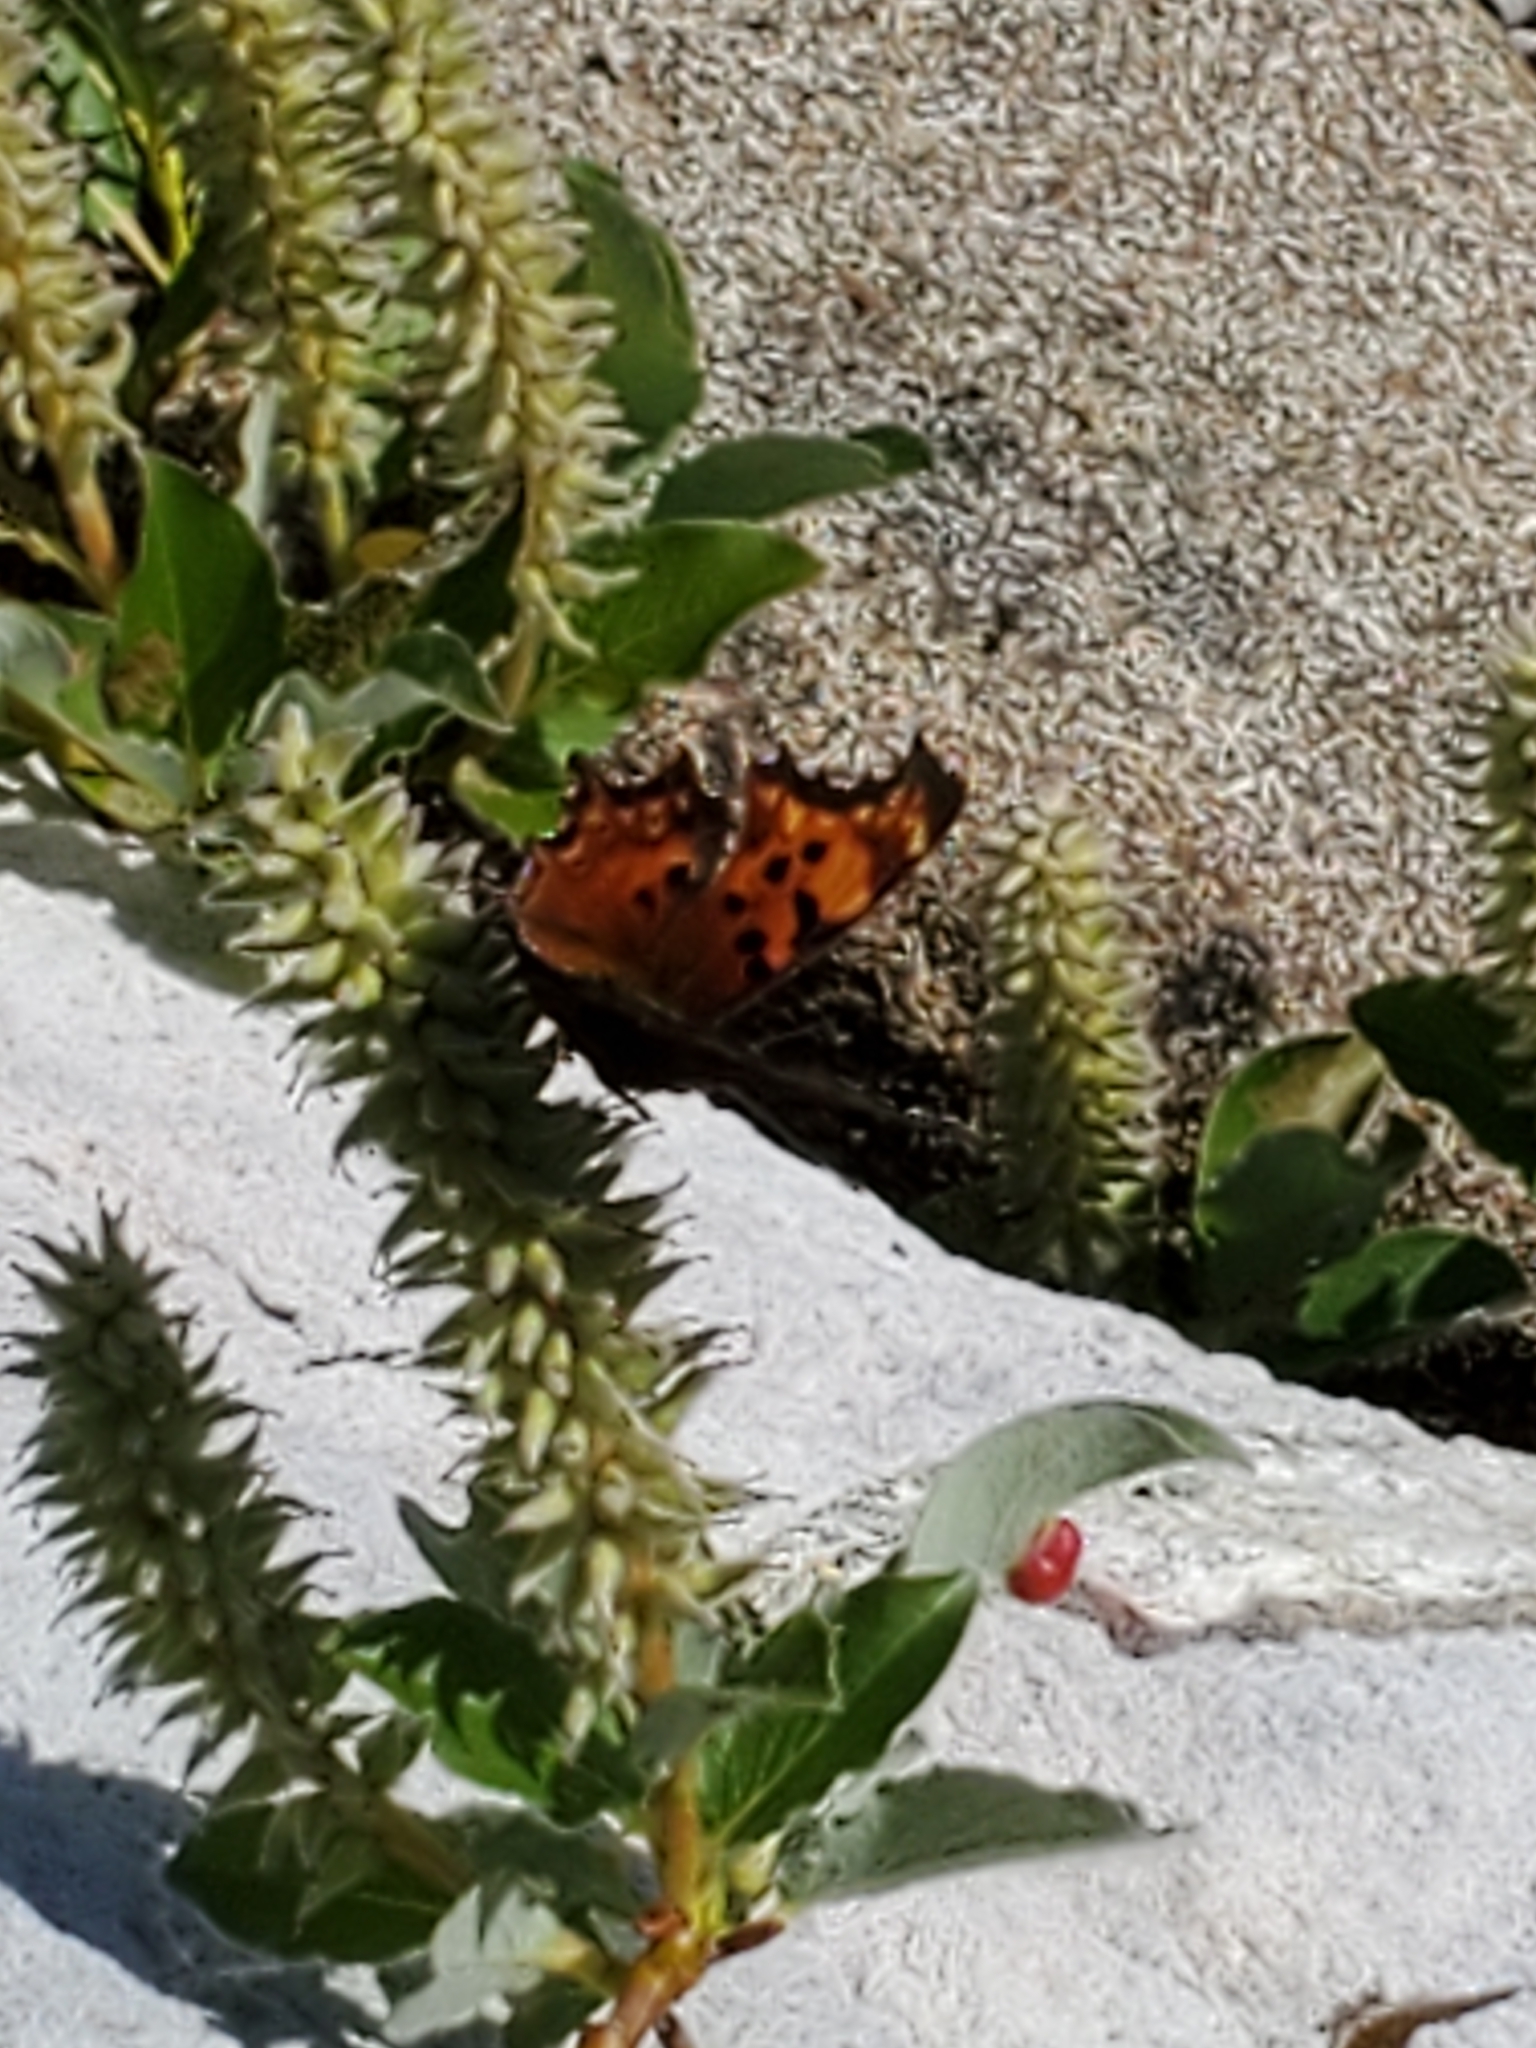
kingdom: Animalia
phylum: Arthropoda
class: Insecta
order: Lepidoptera
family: Nymphalidae
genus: Polygonia
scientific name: Polygonia gracilis
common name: Hoary comma
